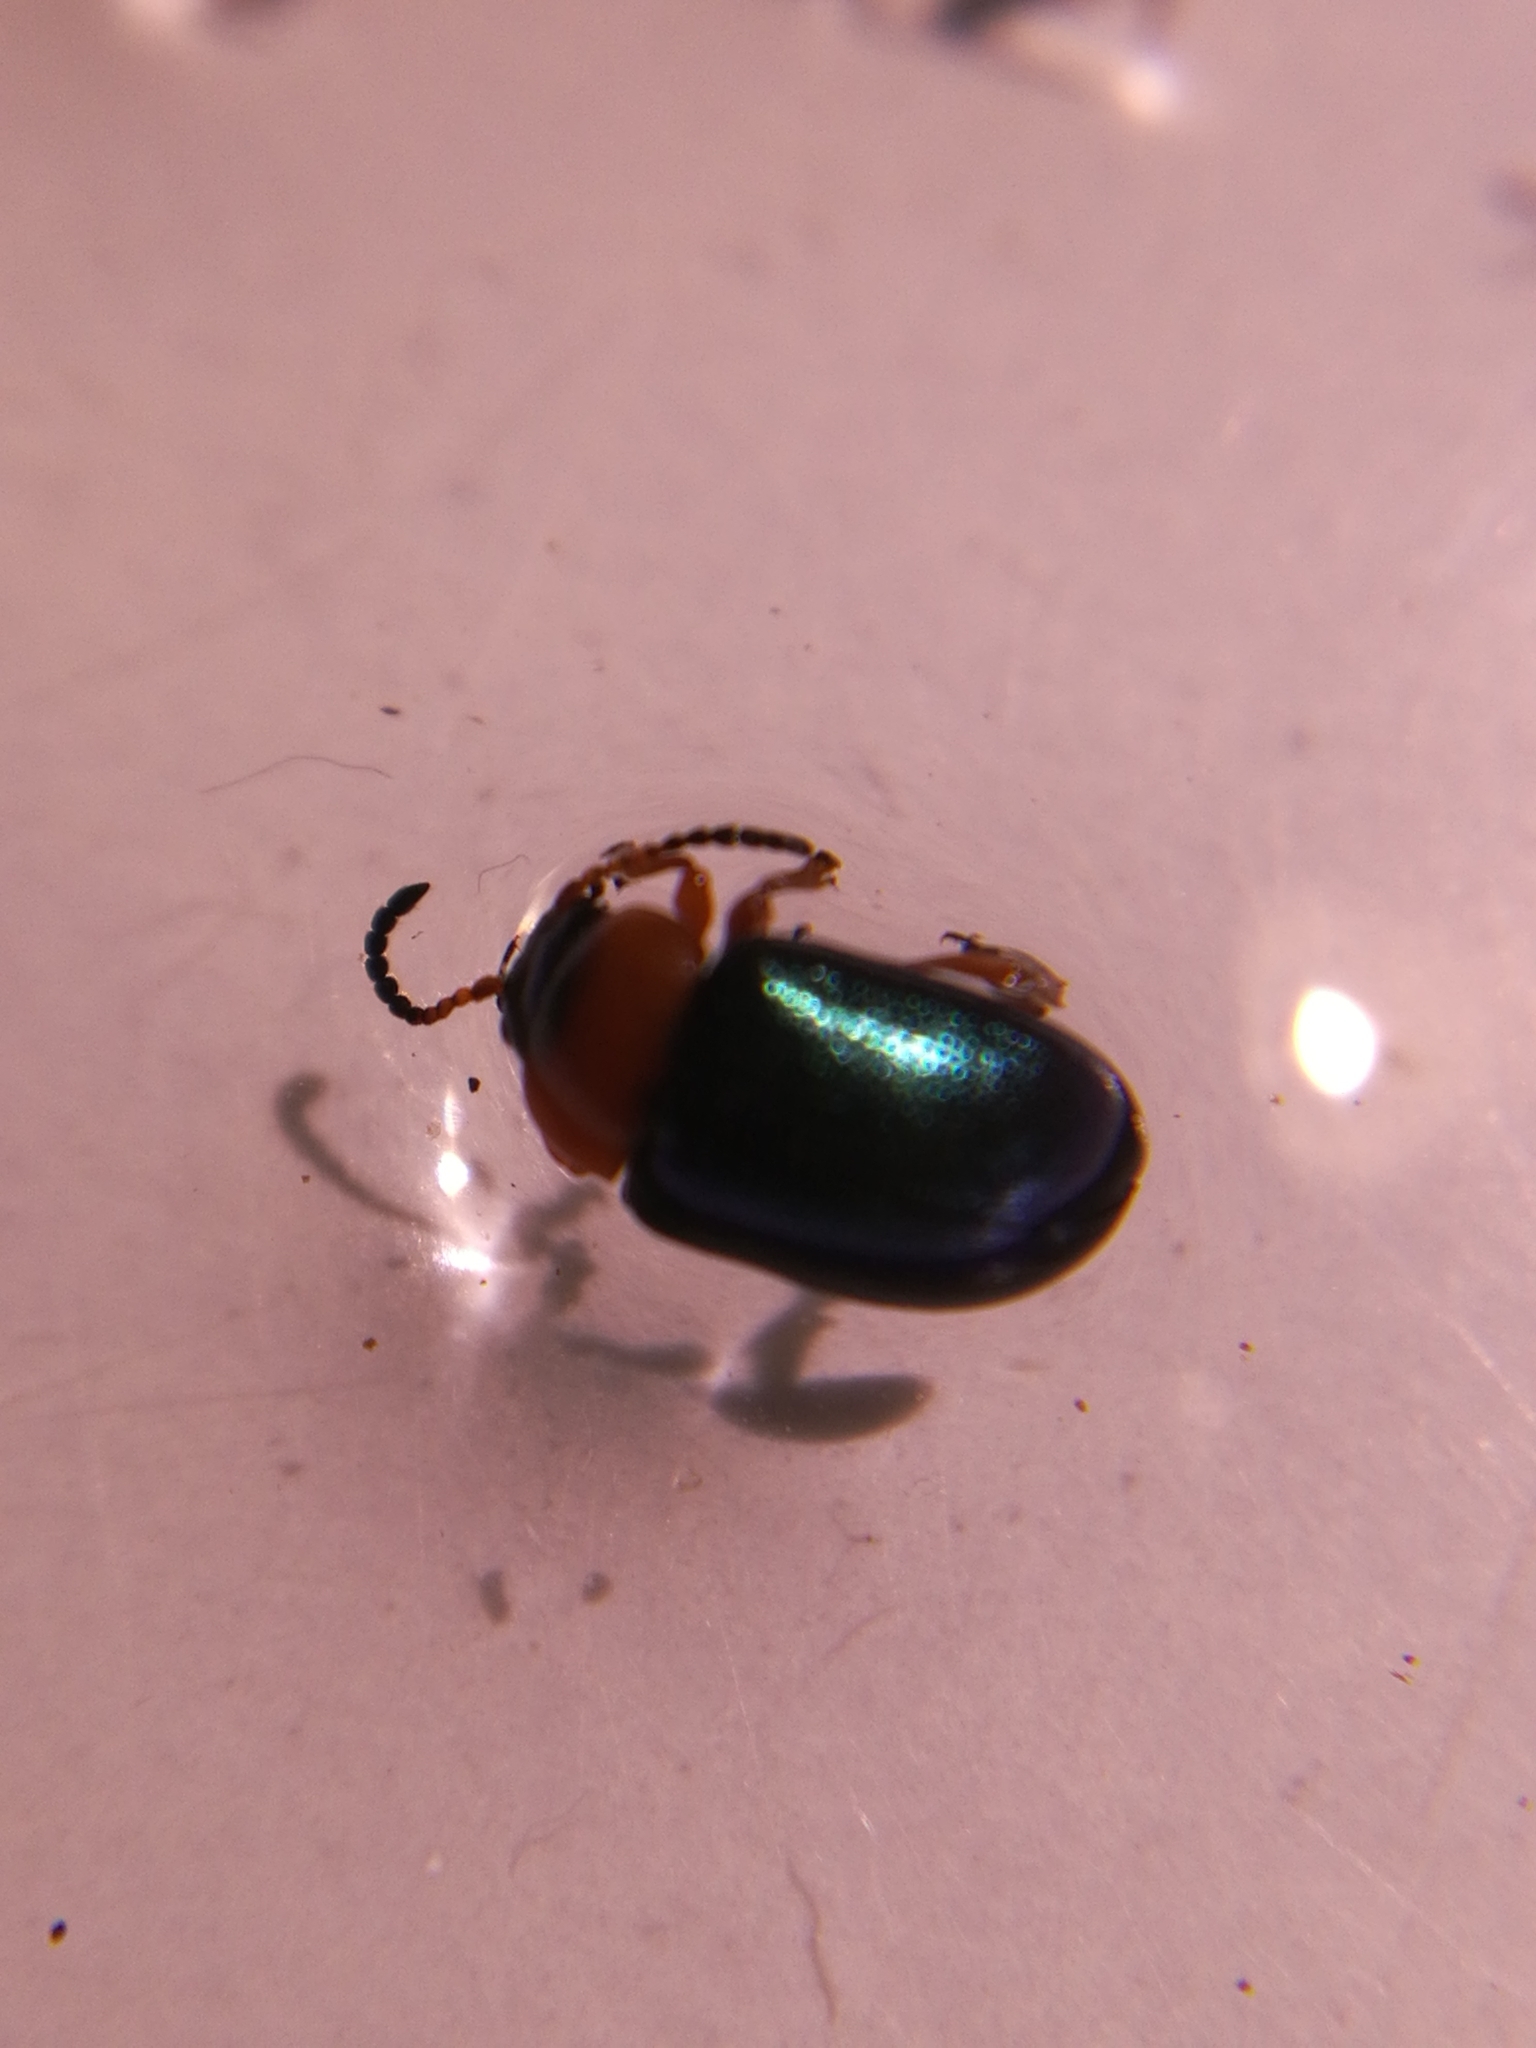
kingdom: Animalia
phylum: Arthropoda
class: Insecta
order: Coleoptera
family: Chrysomelidae
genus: Gastrophysa
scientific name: Gastrophysa polygoni
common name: Knotweed leaf beetle
